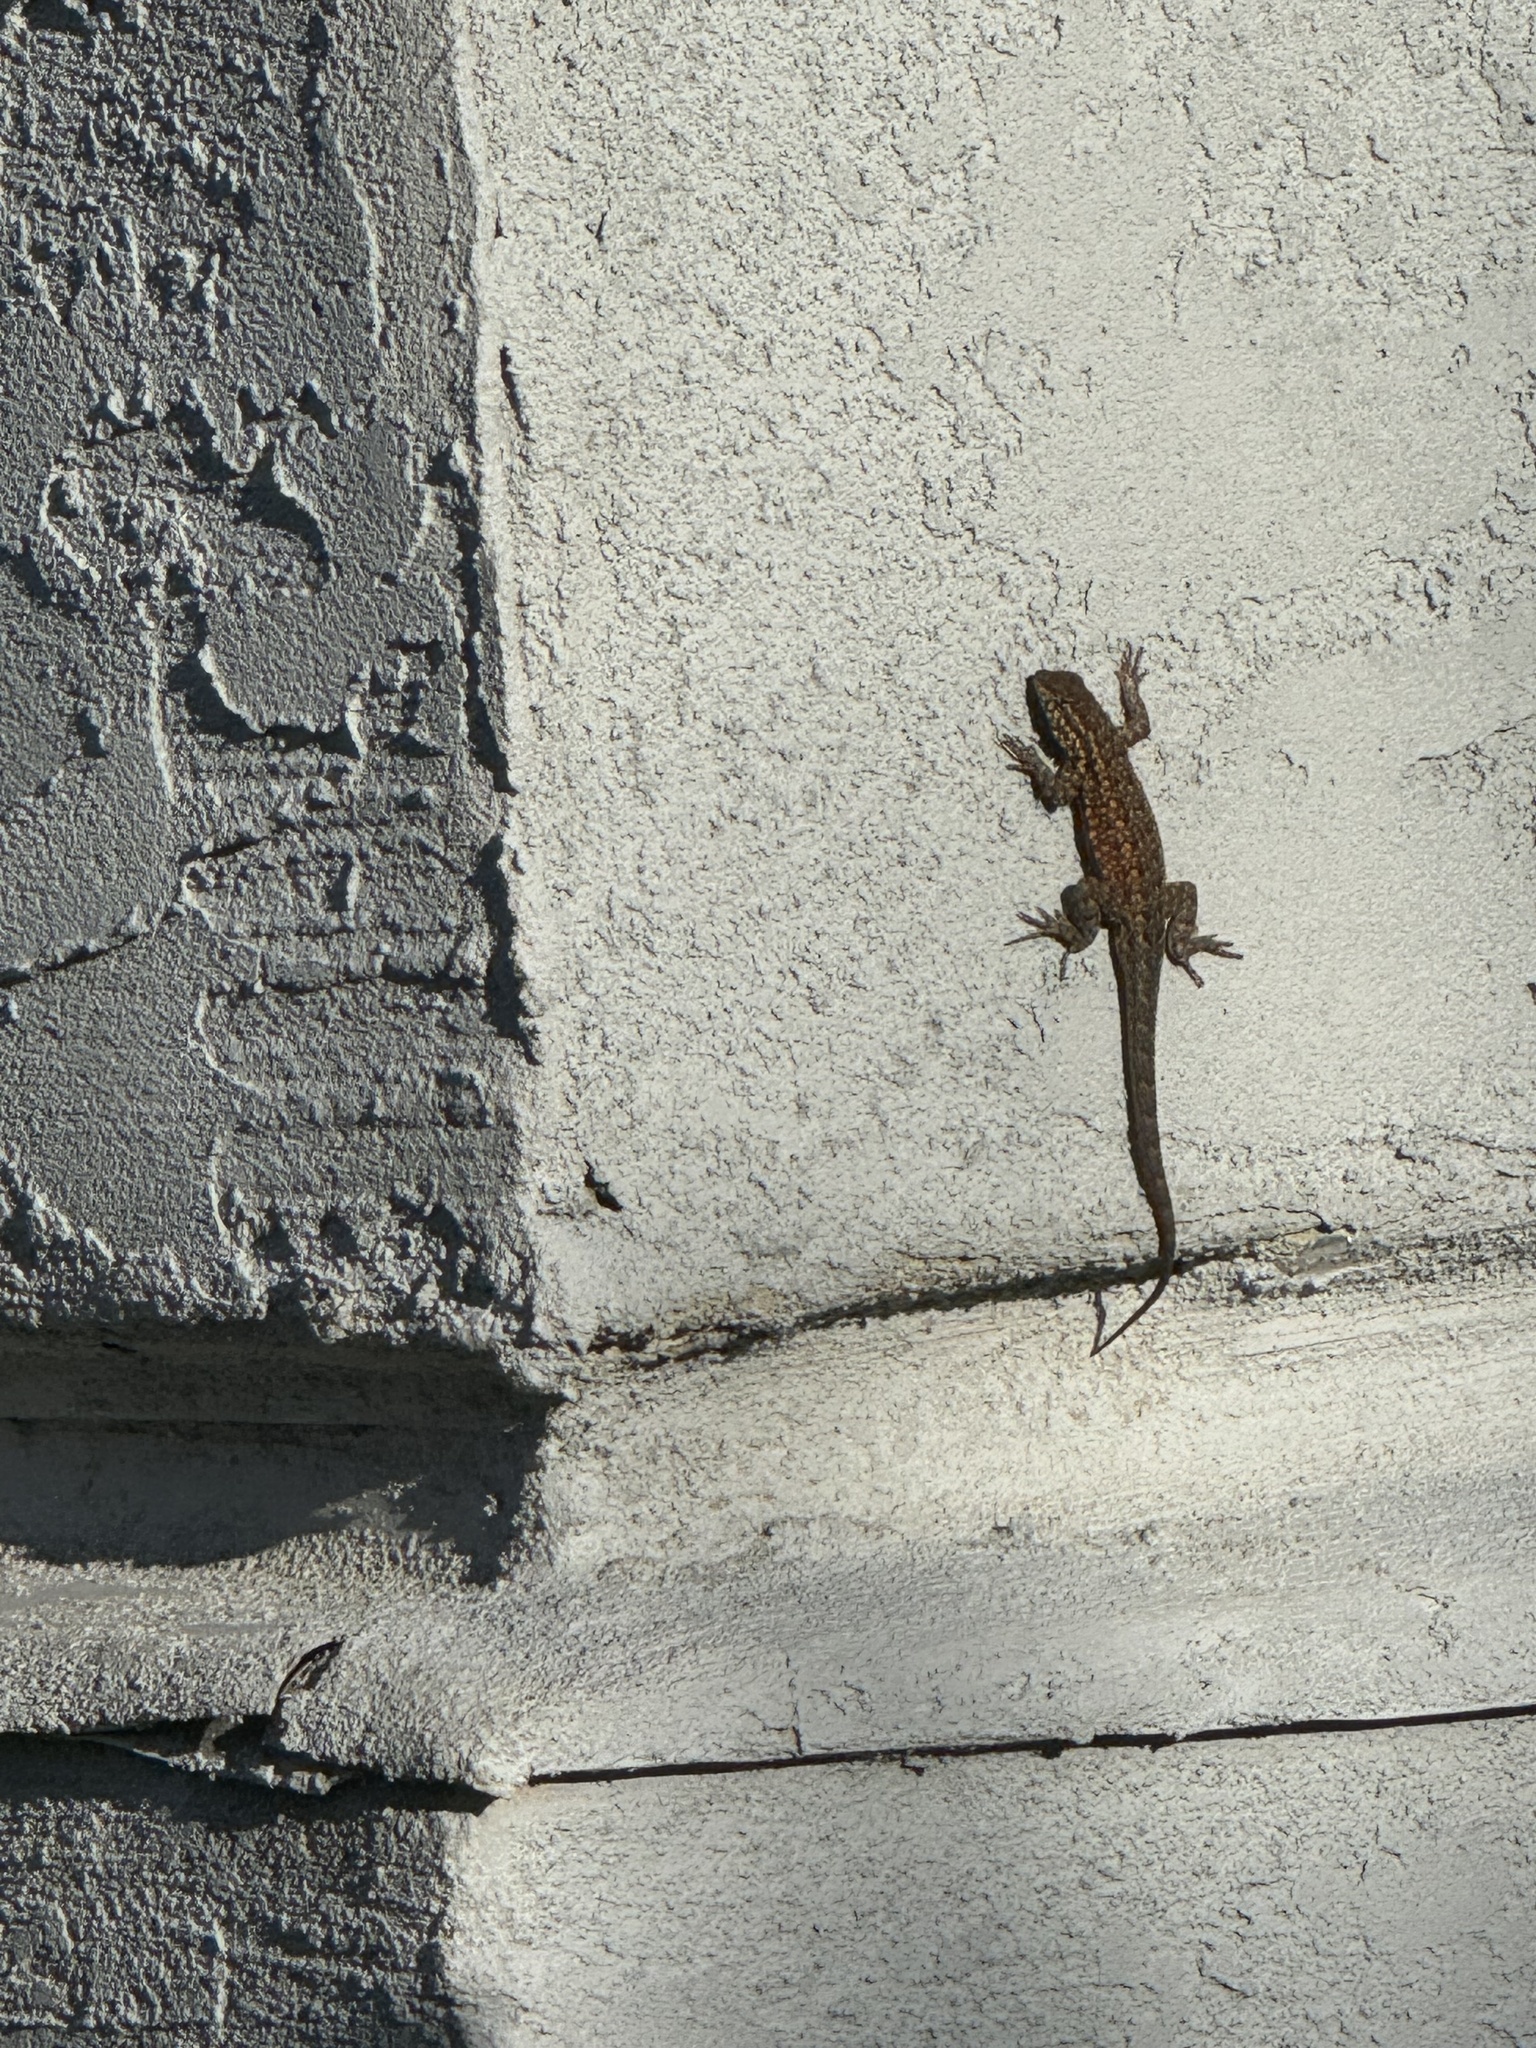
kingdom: Animalia
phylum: Chordata
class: Squamata
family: Phrynosomatidae
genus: Uta
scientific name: Uta stansburiana
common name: Side-blotched lizard
